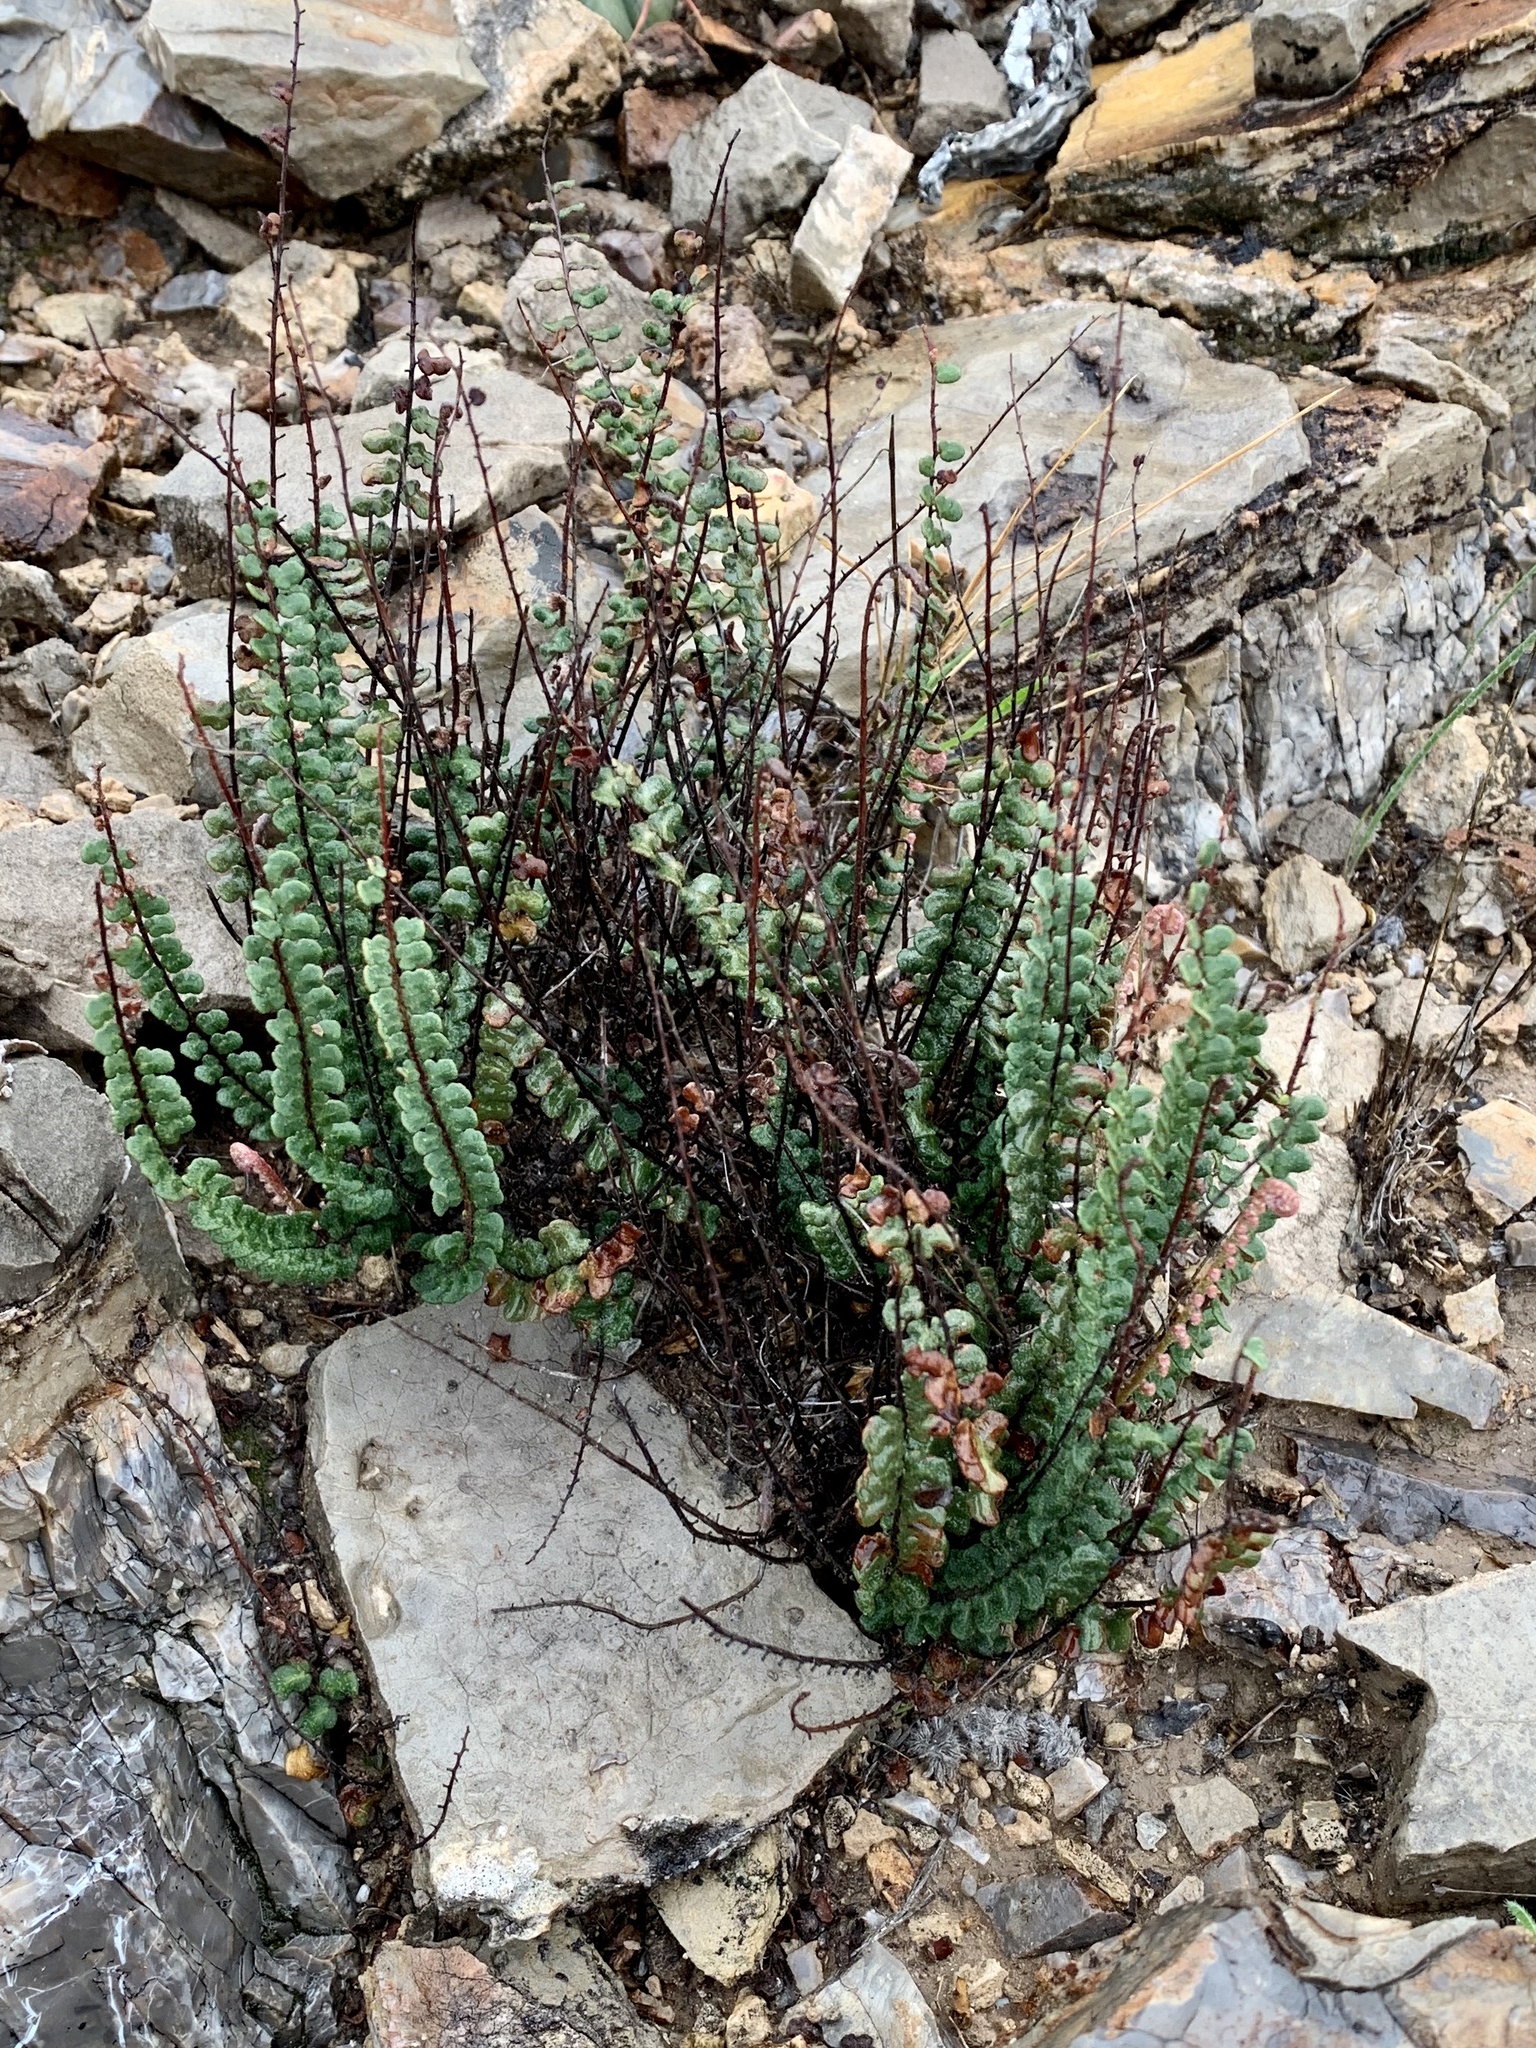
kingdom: Plantae
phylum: Tracheophyta
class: Polypodiopsida
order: Polypodiales
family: Pteridaceae
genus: Astrolepis
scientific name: Astrolepis cochisensis
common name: Scaly cloak fern
